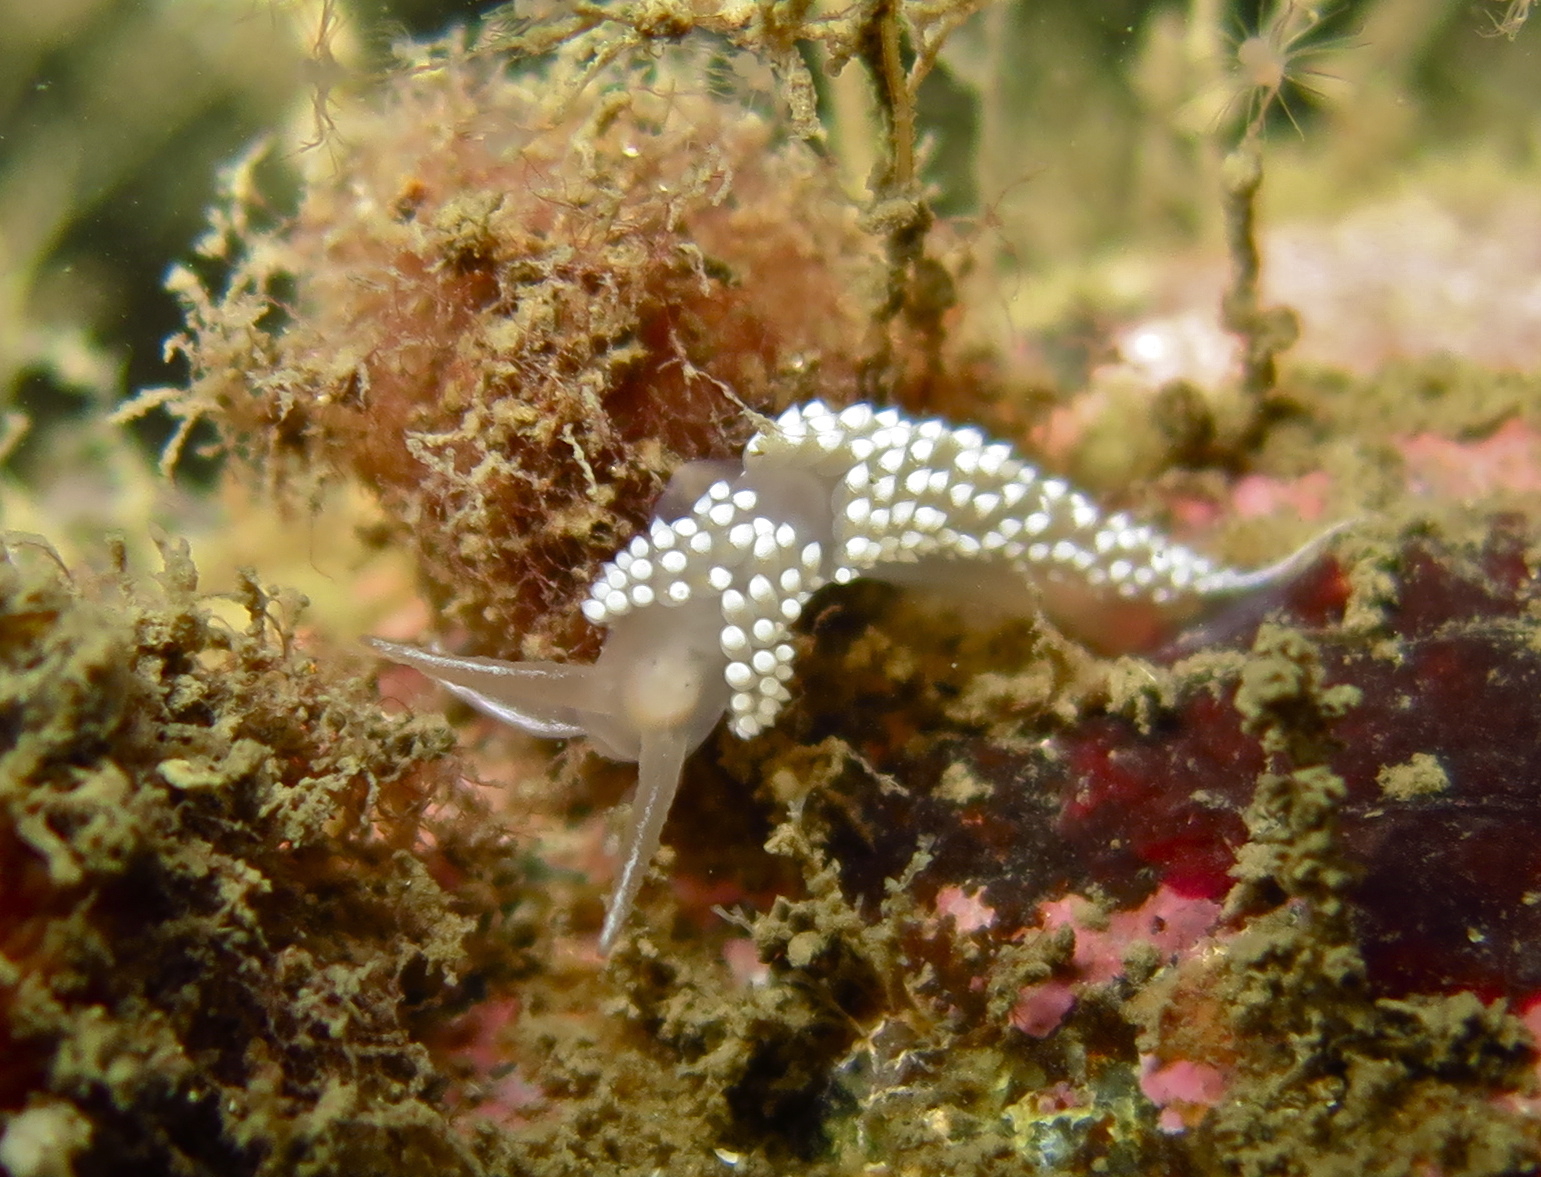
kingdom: Animalia
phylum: Mollusca
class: Gastropoda
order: Nudibranchia
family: Coryphellidae
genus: Coryphella
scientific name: Coryphella verrucosa
